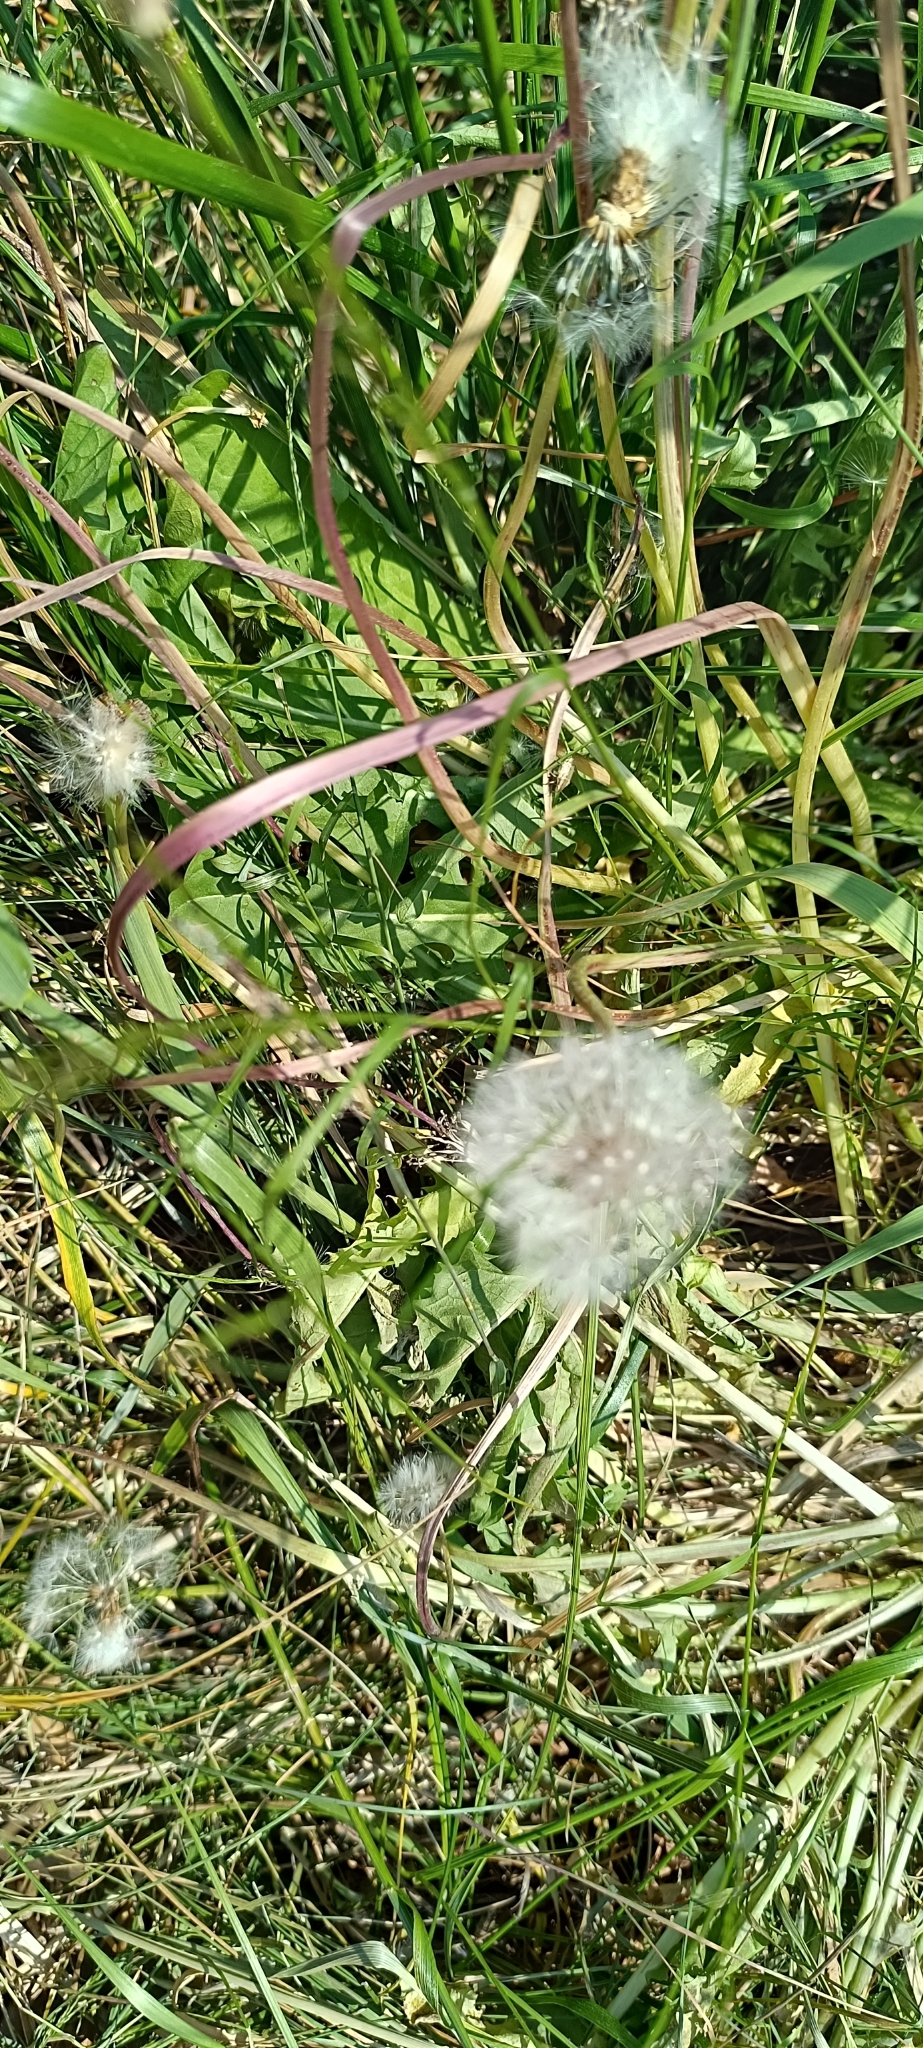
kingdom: Plantae
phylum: Tracheophyta
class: Magnoliopsida
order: Asterales
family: Asteraceae
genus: Taraxacum
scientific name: Taraxacum officinale
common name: Common dandelion
